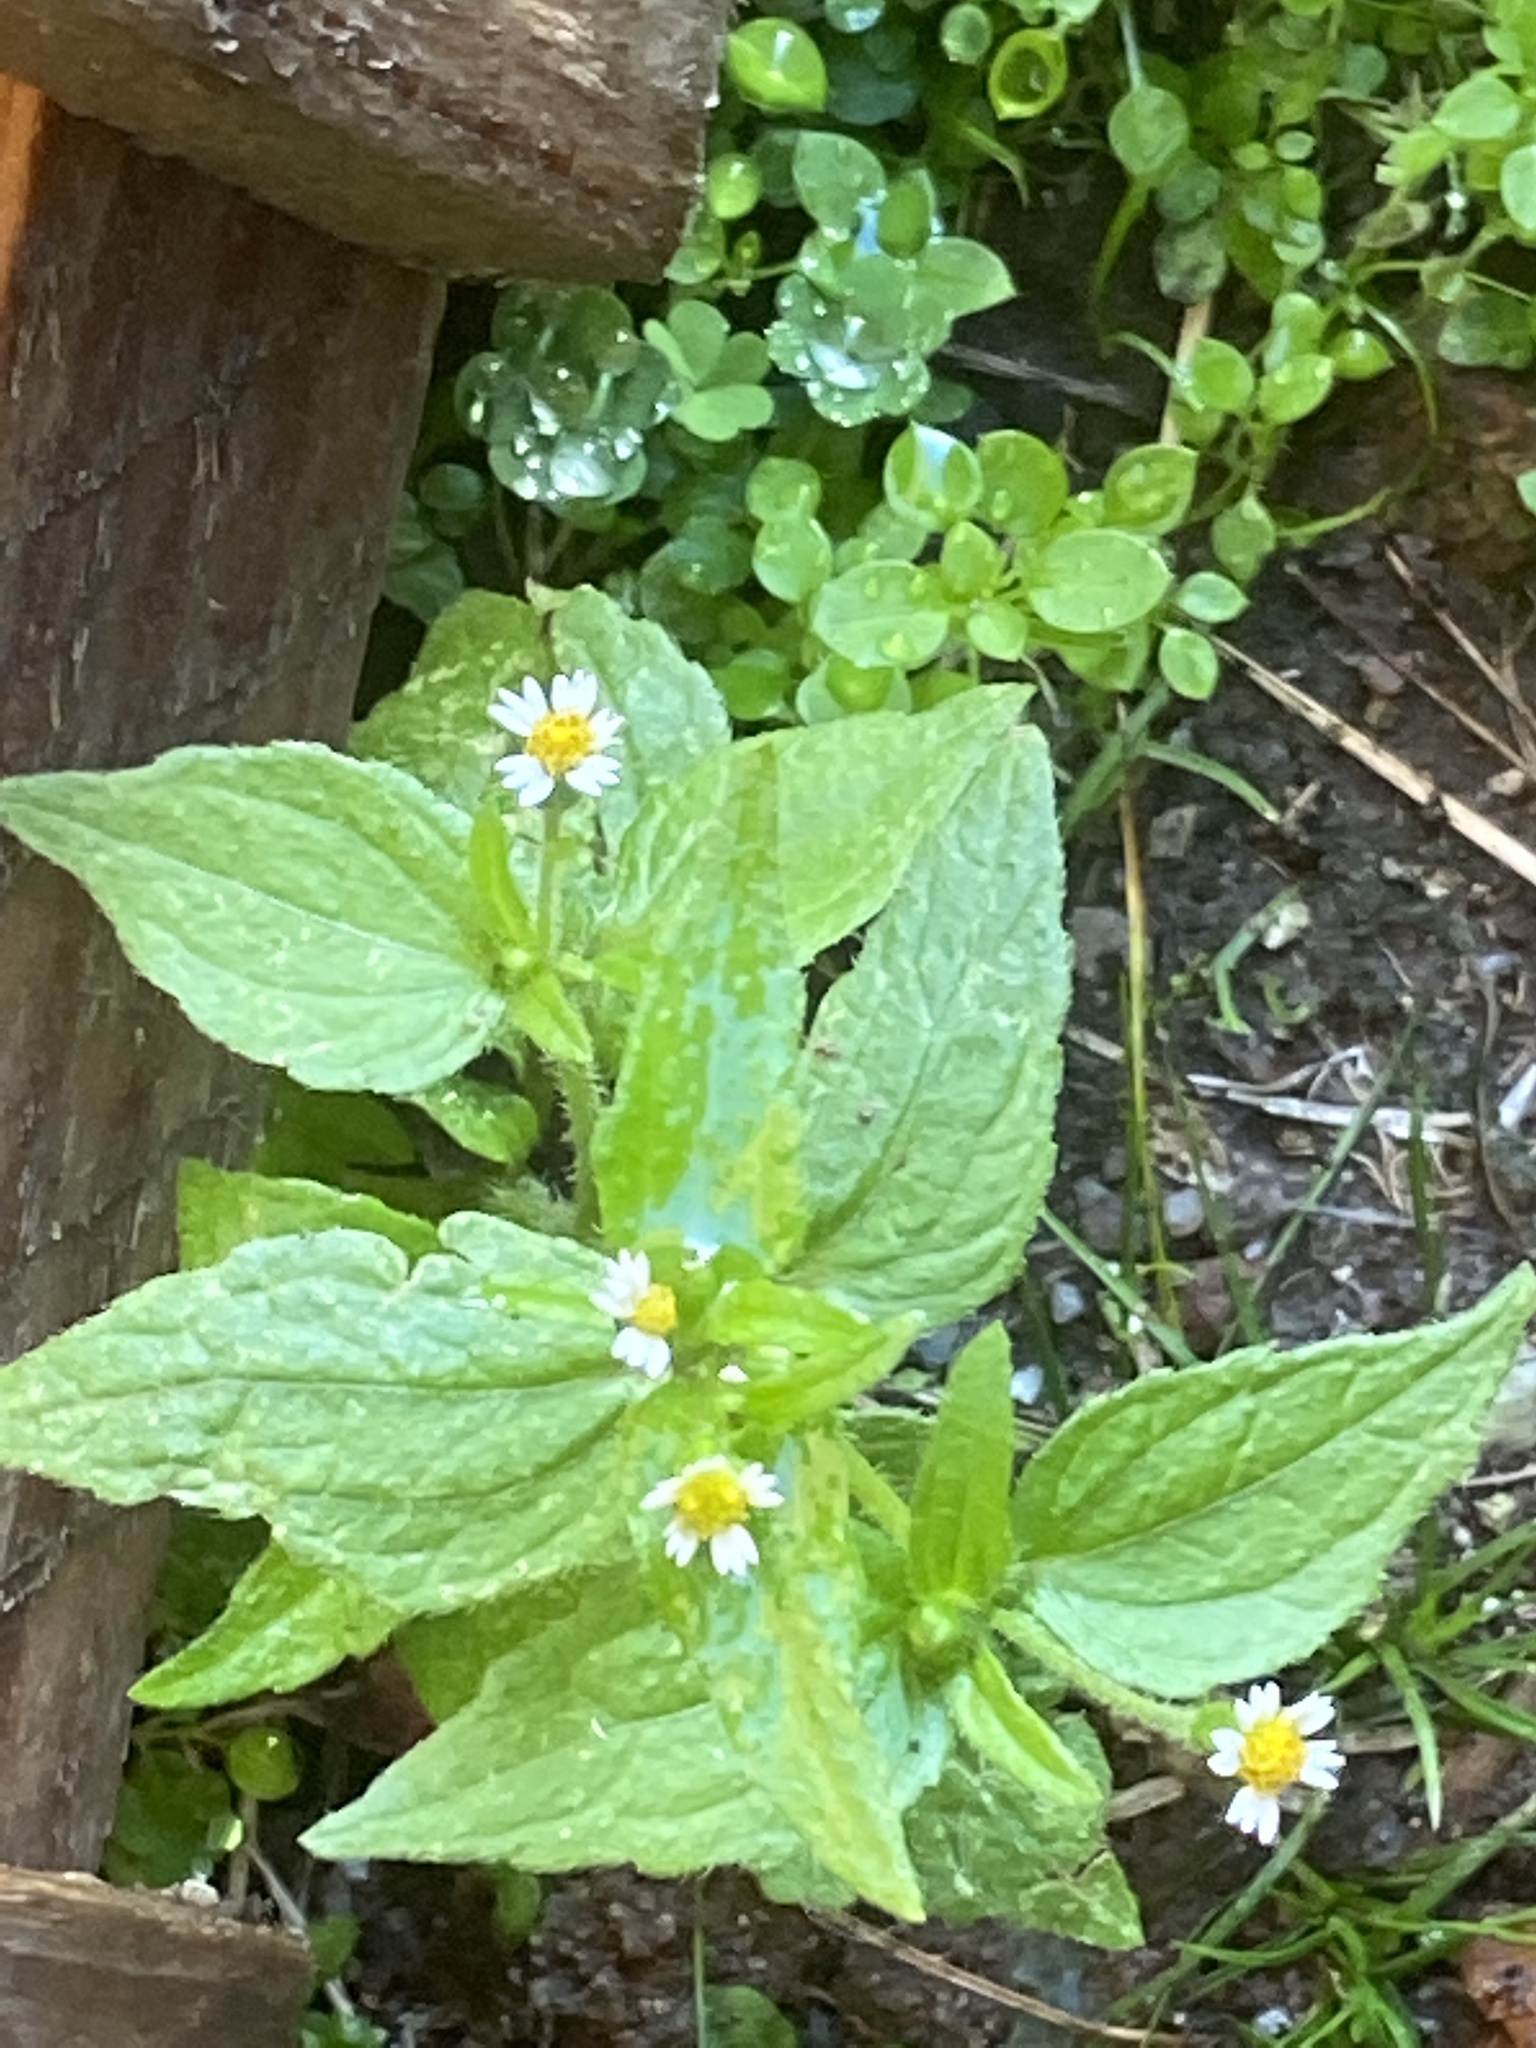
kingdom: Plantae
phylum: Tracheophyta
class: Magnoliopsida
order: Asterales
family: Asteraceae
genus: Galinsoga
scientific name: Galinsoga quadriradiata
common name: Shaggy soldier
